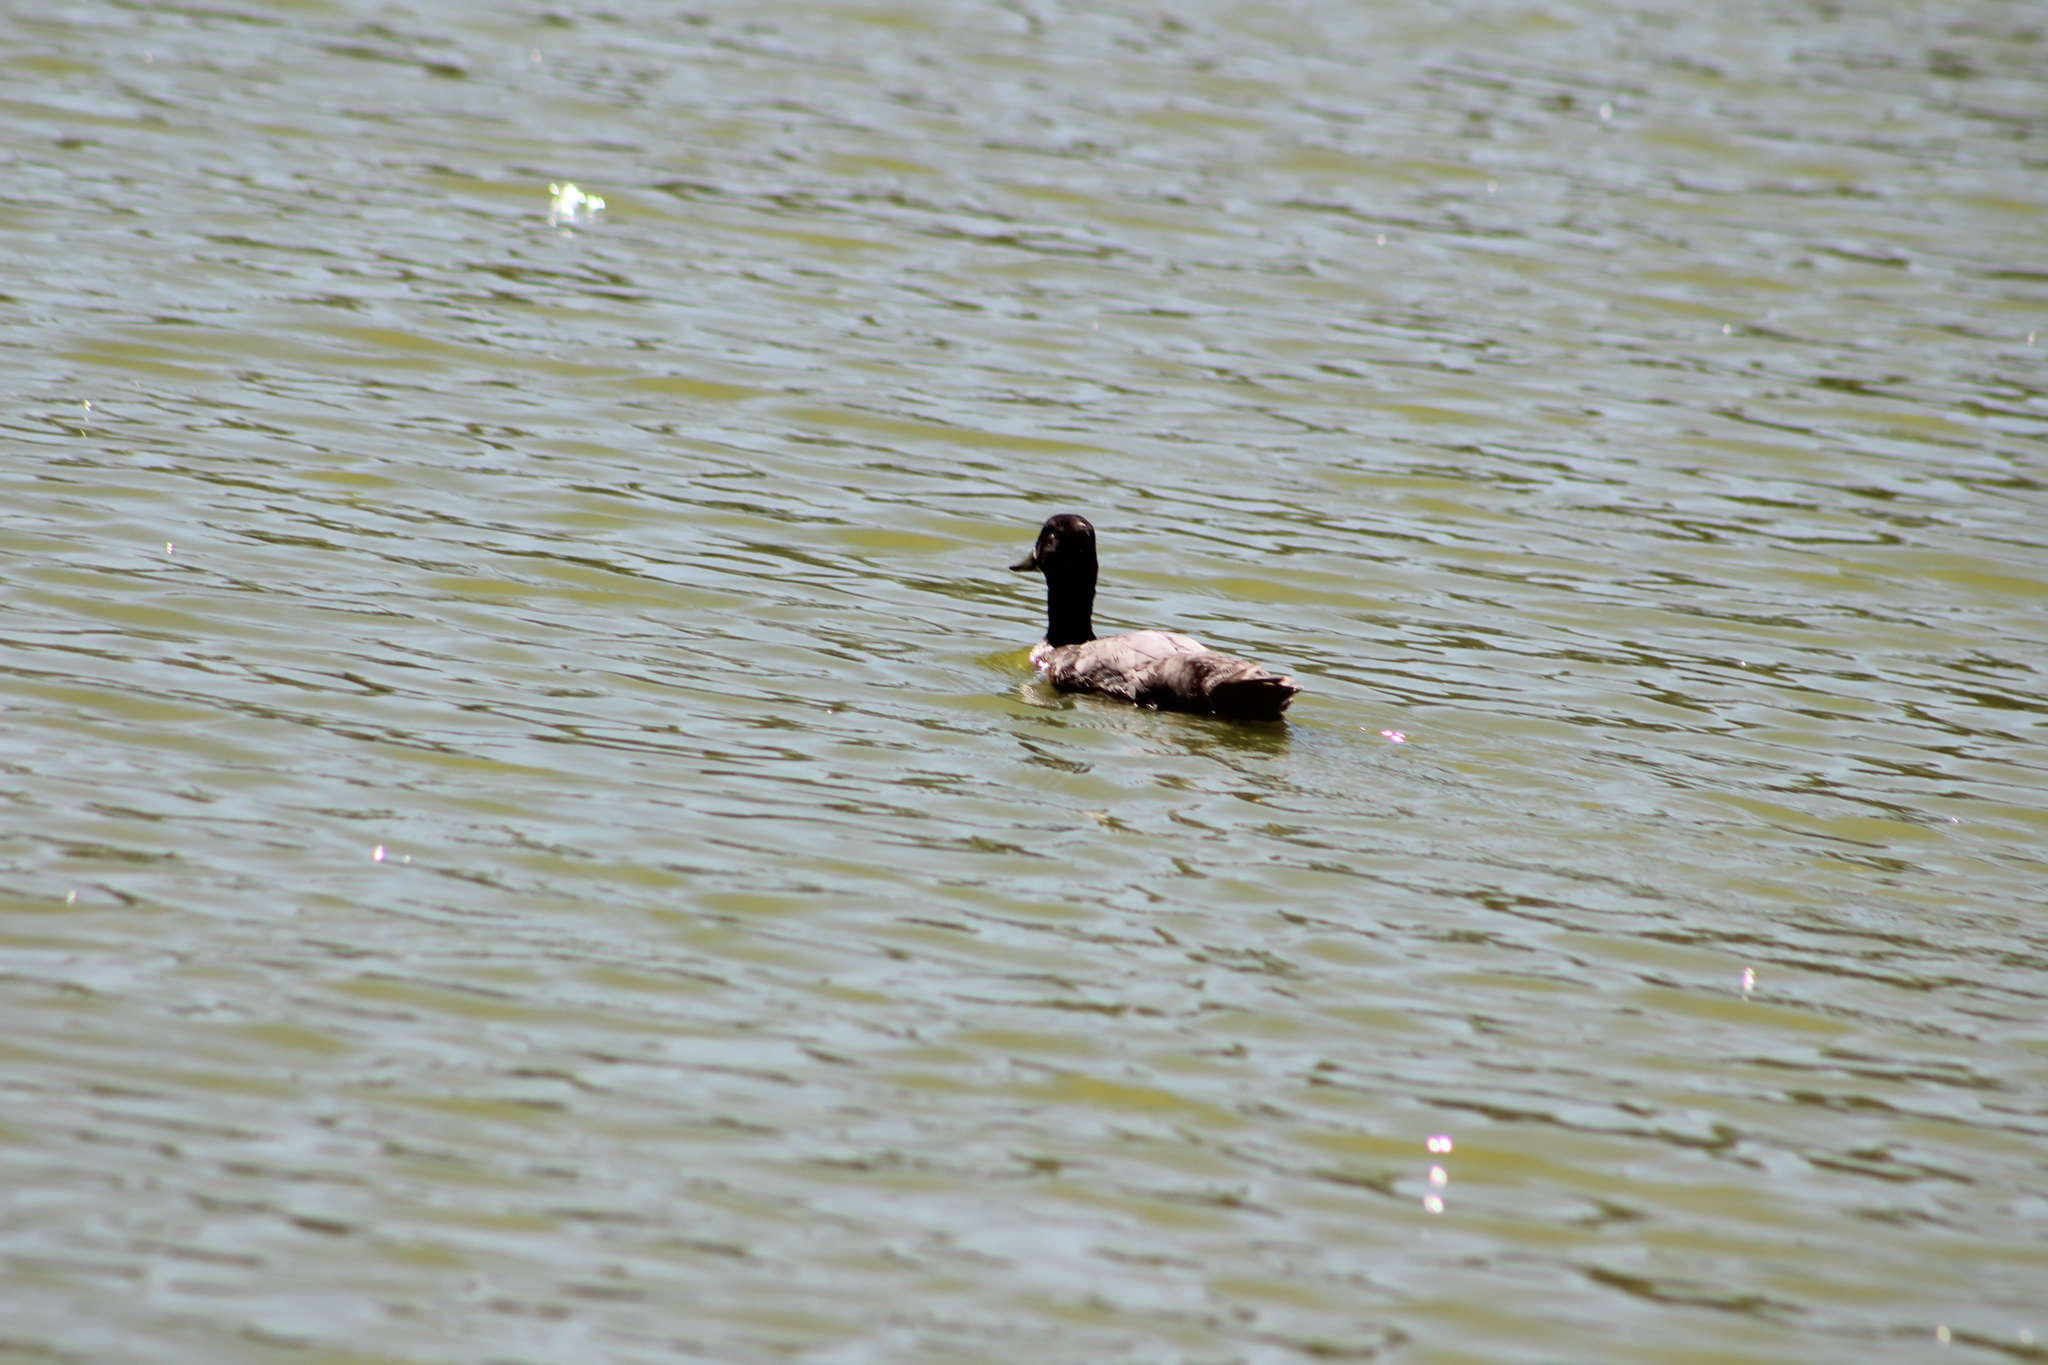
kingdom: Animalia
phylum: Chordata
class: Aves
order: Anseriformes
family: Anatidae
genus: Anas
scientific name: Anas platyrhynchos
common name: Mallard
